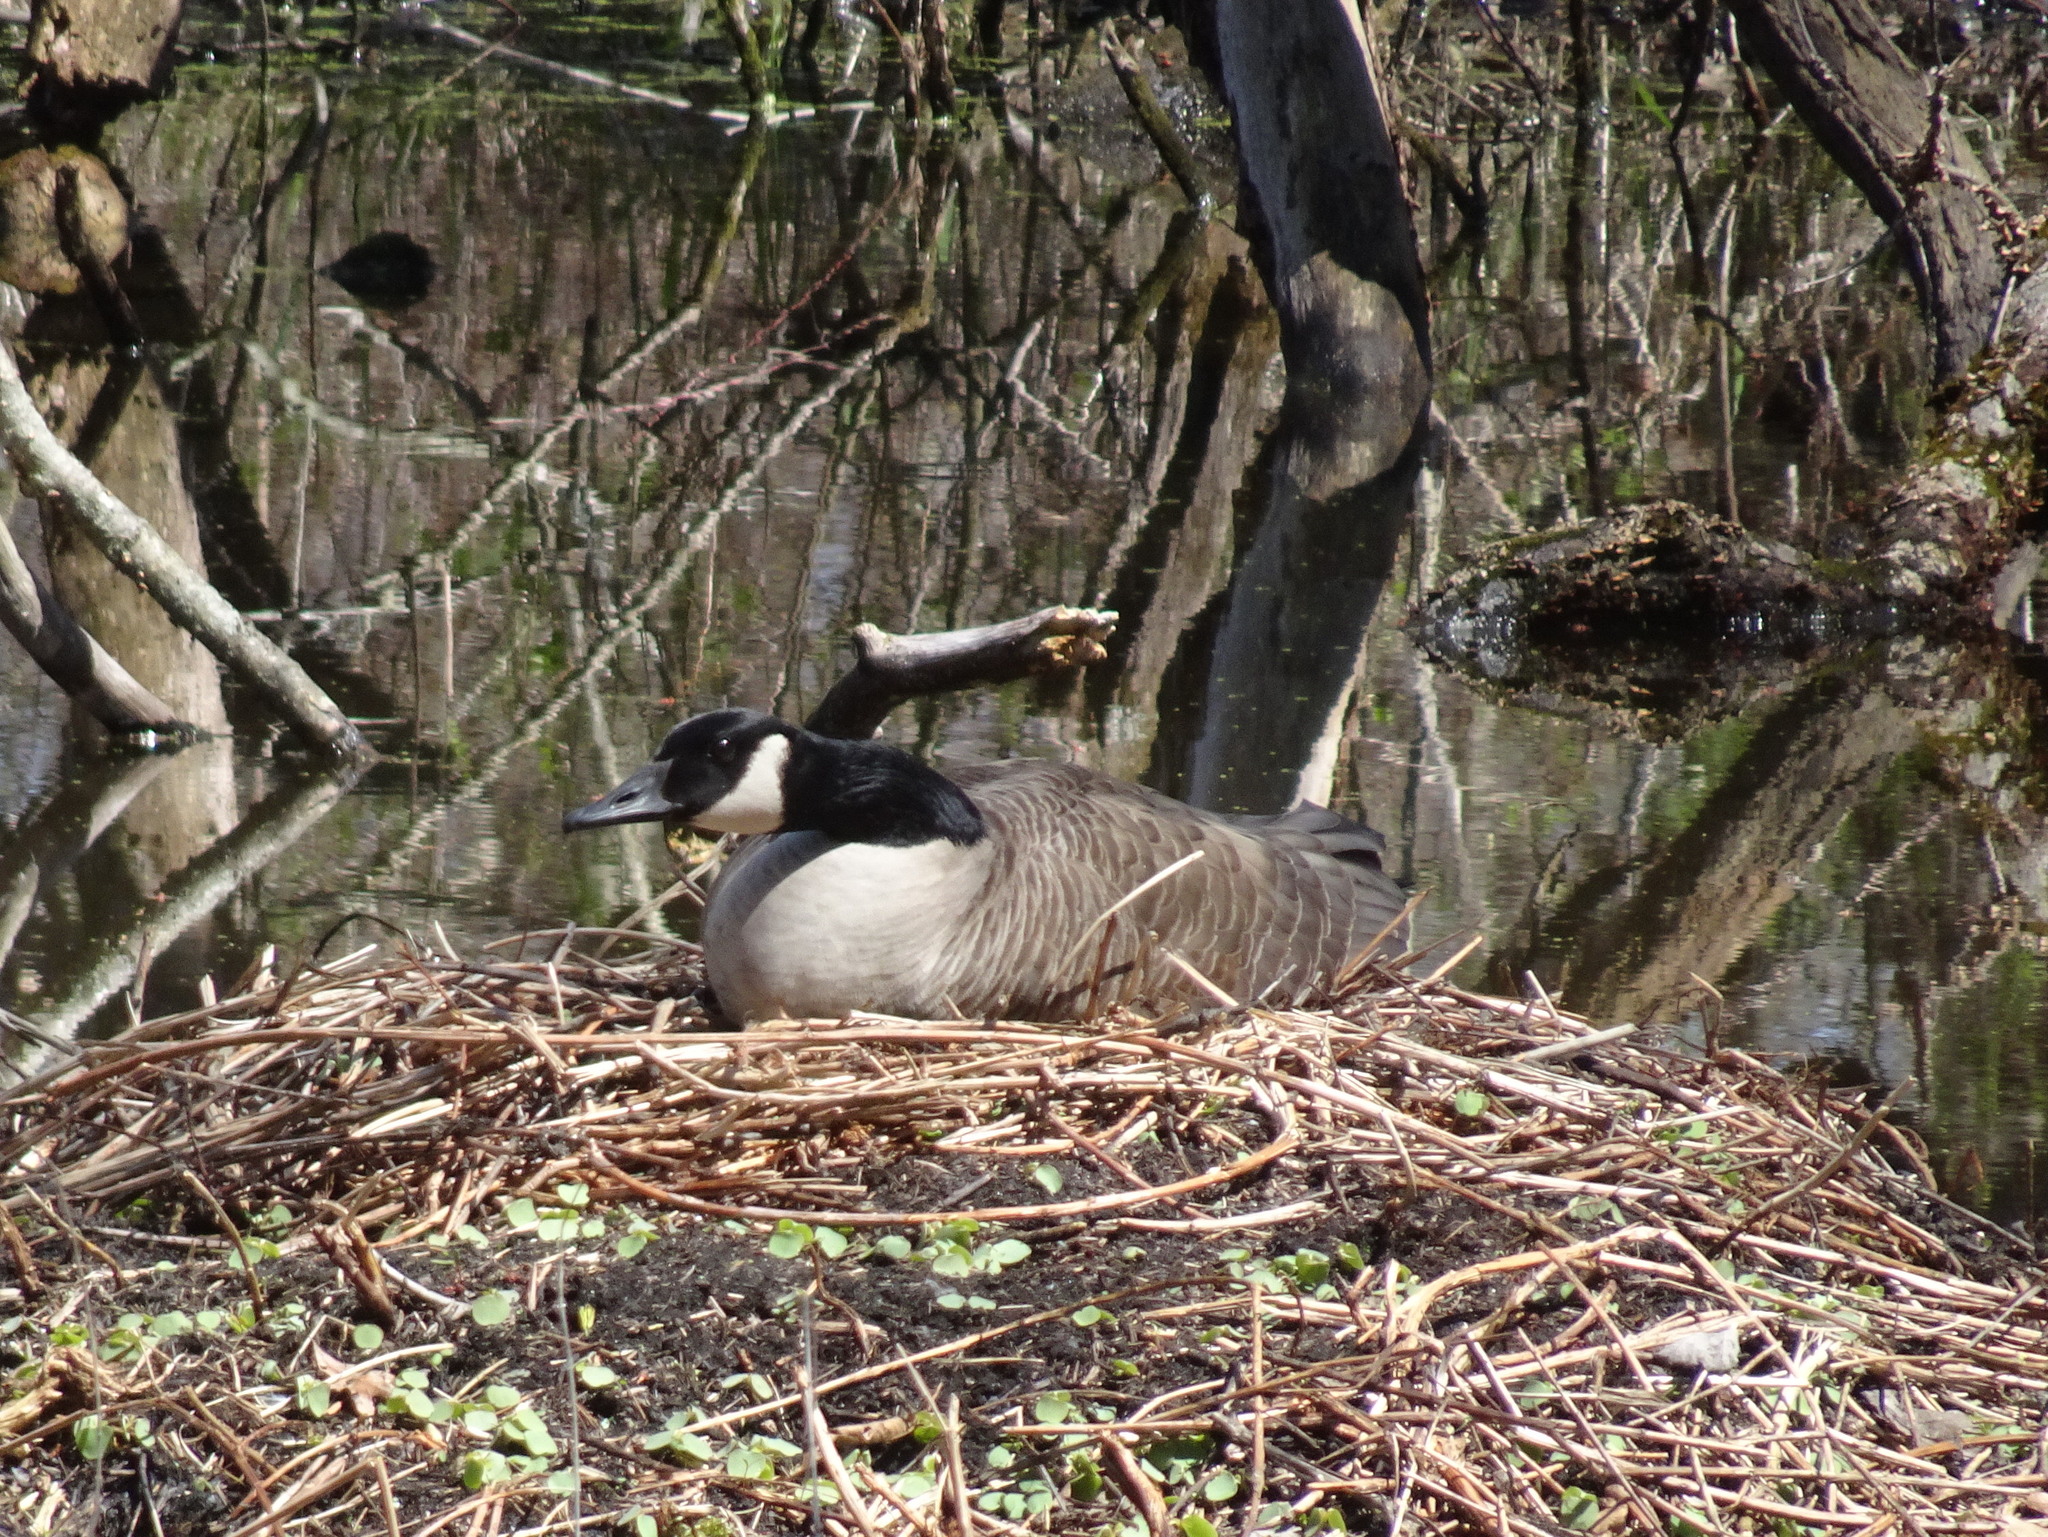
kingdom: Animalia
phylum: Chordata
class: Aves
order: Anseriformes
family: Anatidae
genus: Branta
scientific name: Branta canadensis
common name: Canada goose
